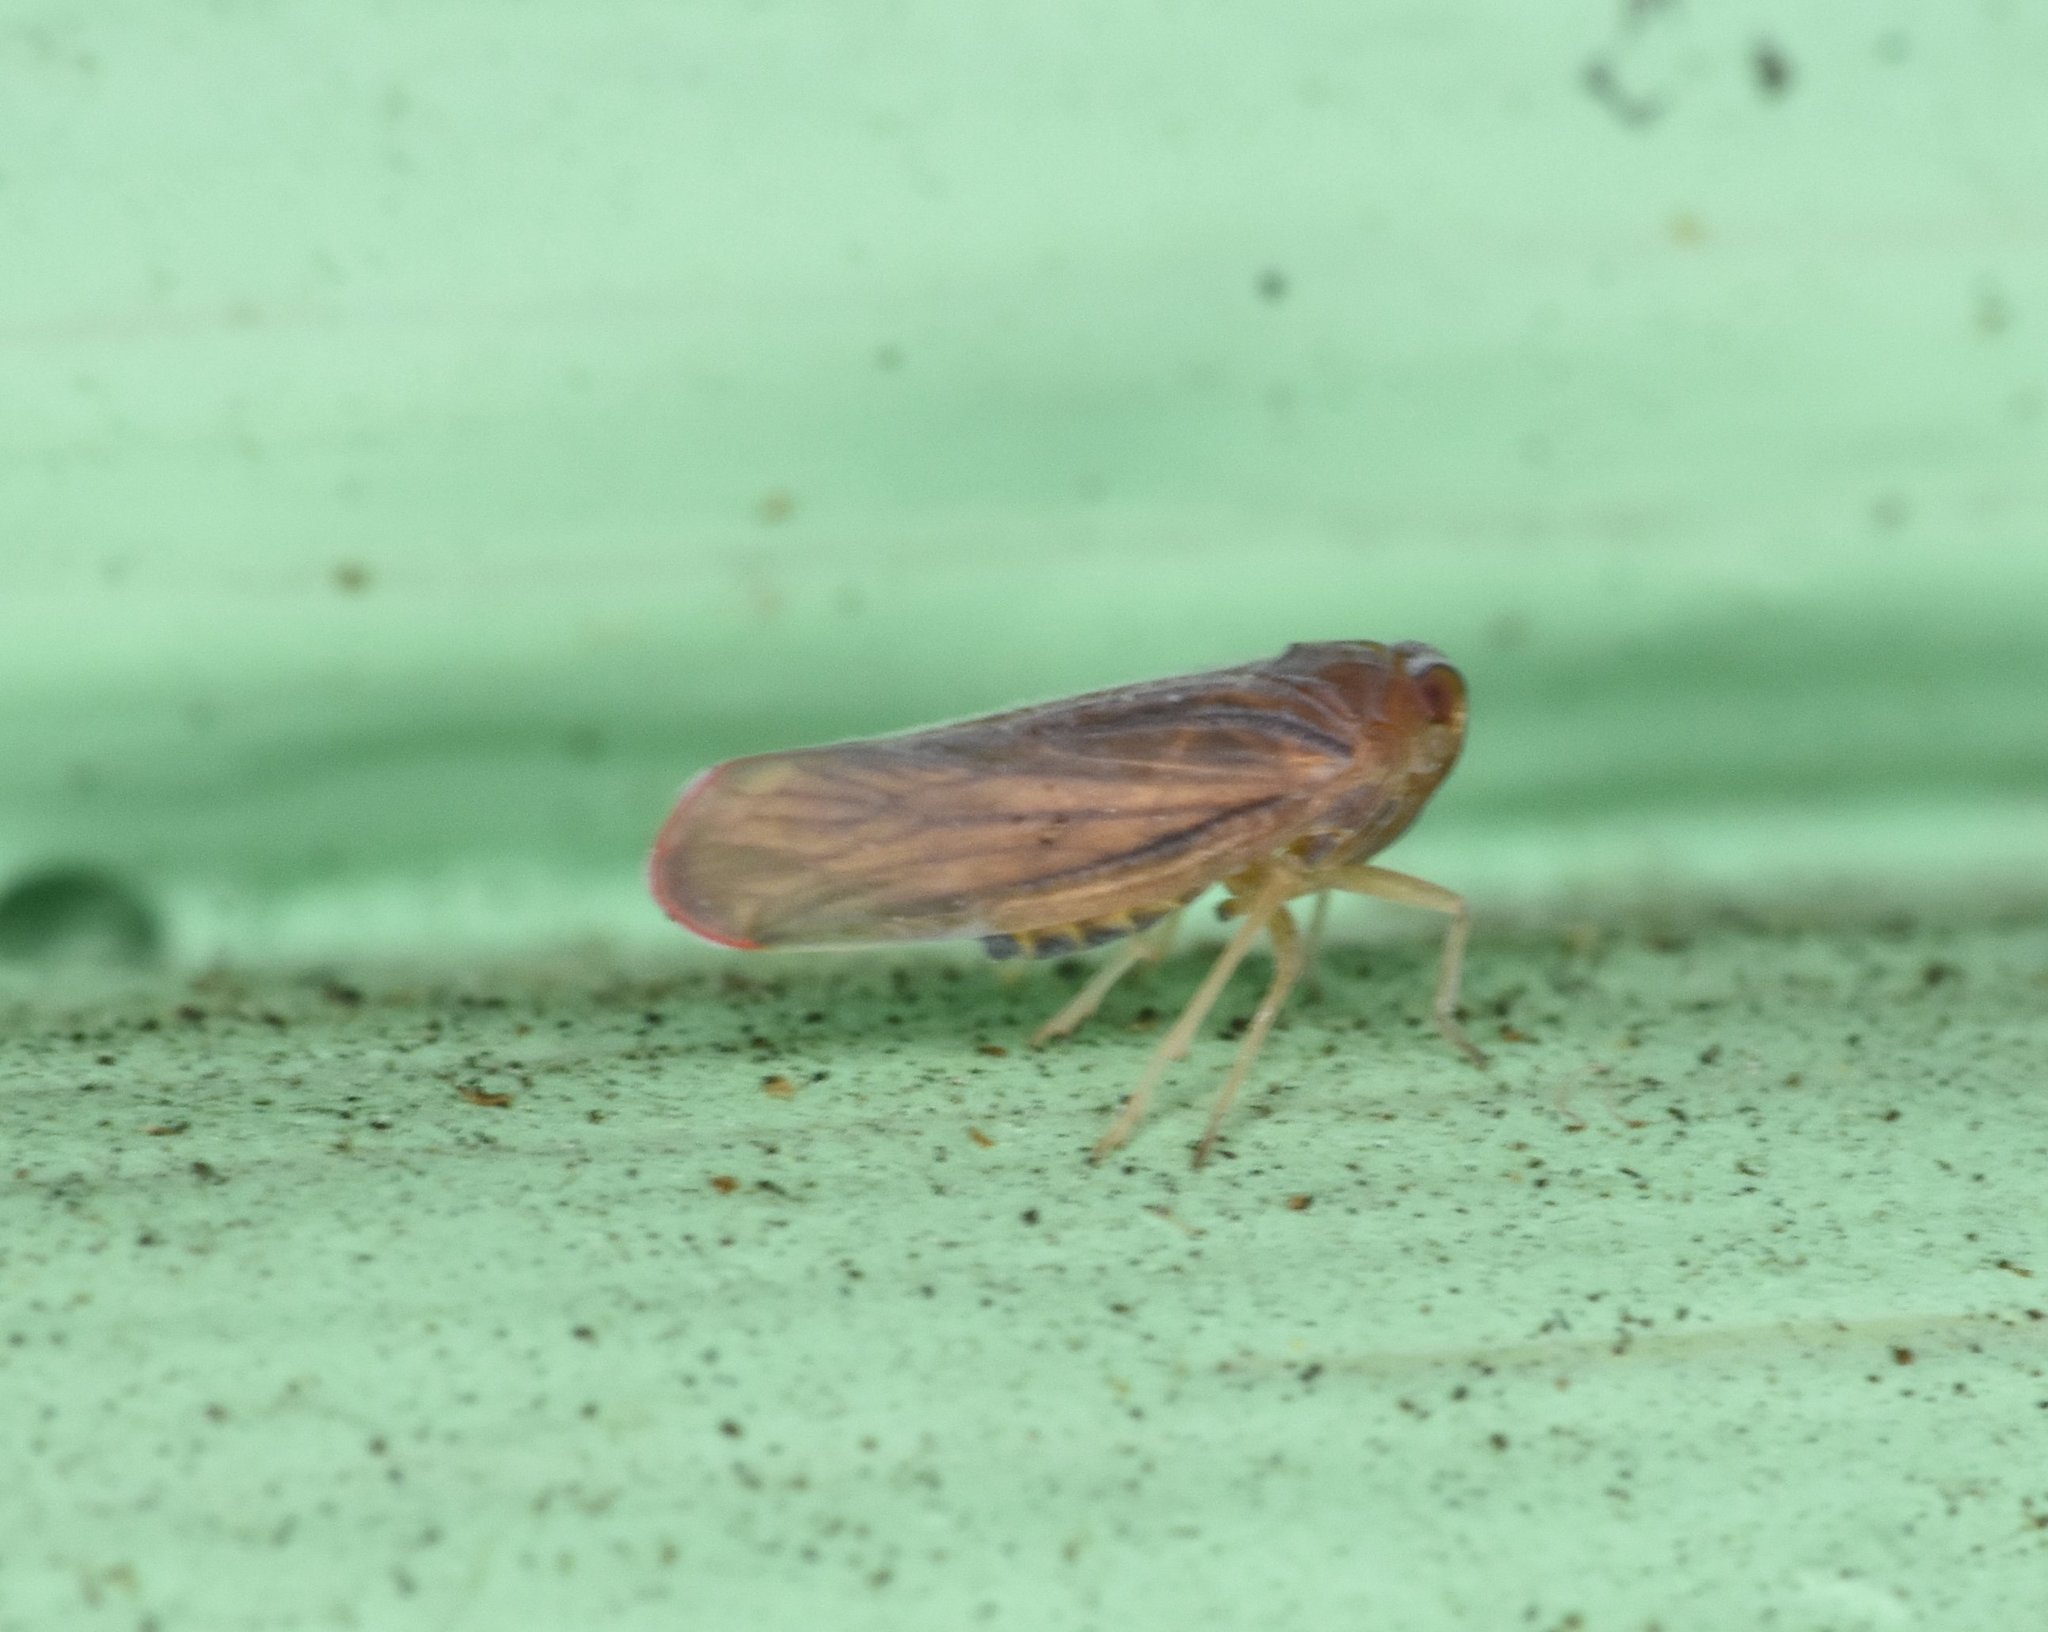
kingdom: Animalia
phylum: Arthropoda
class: Insecta
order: Hemiptera
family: Derbidae
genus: Omolicna
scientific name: Omolicna mcateei
